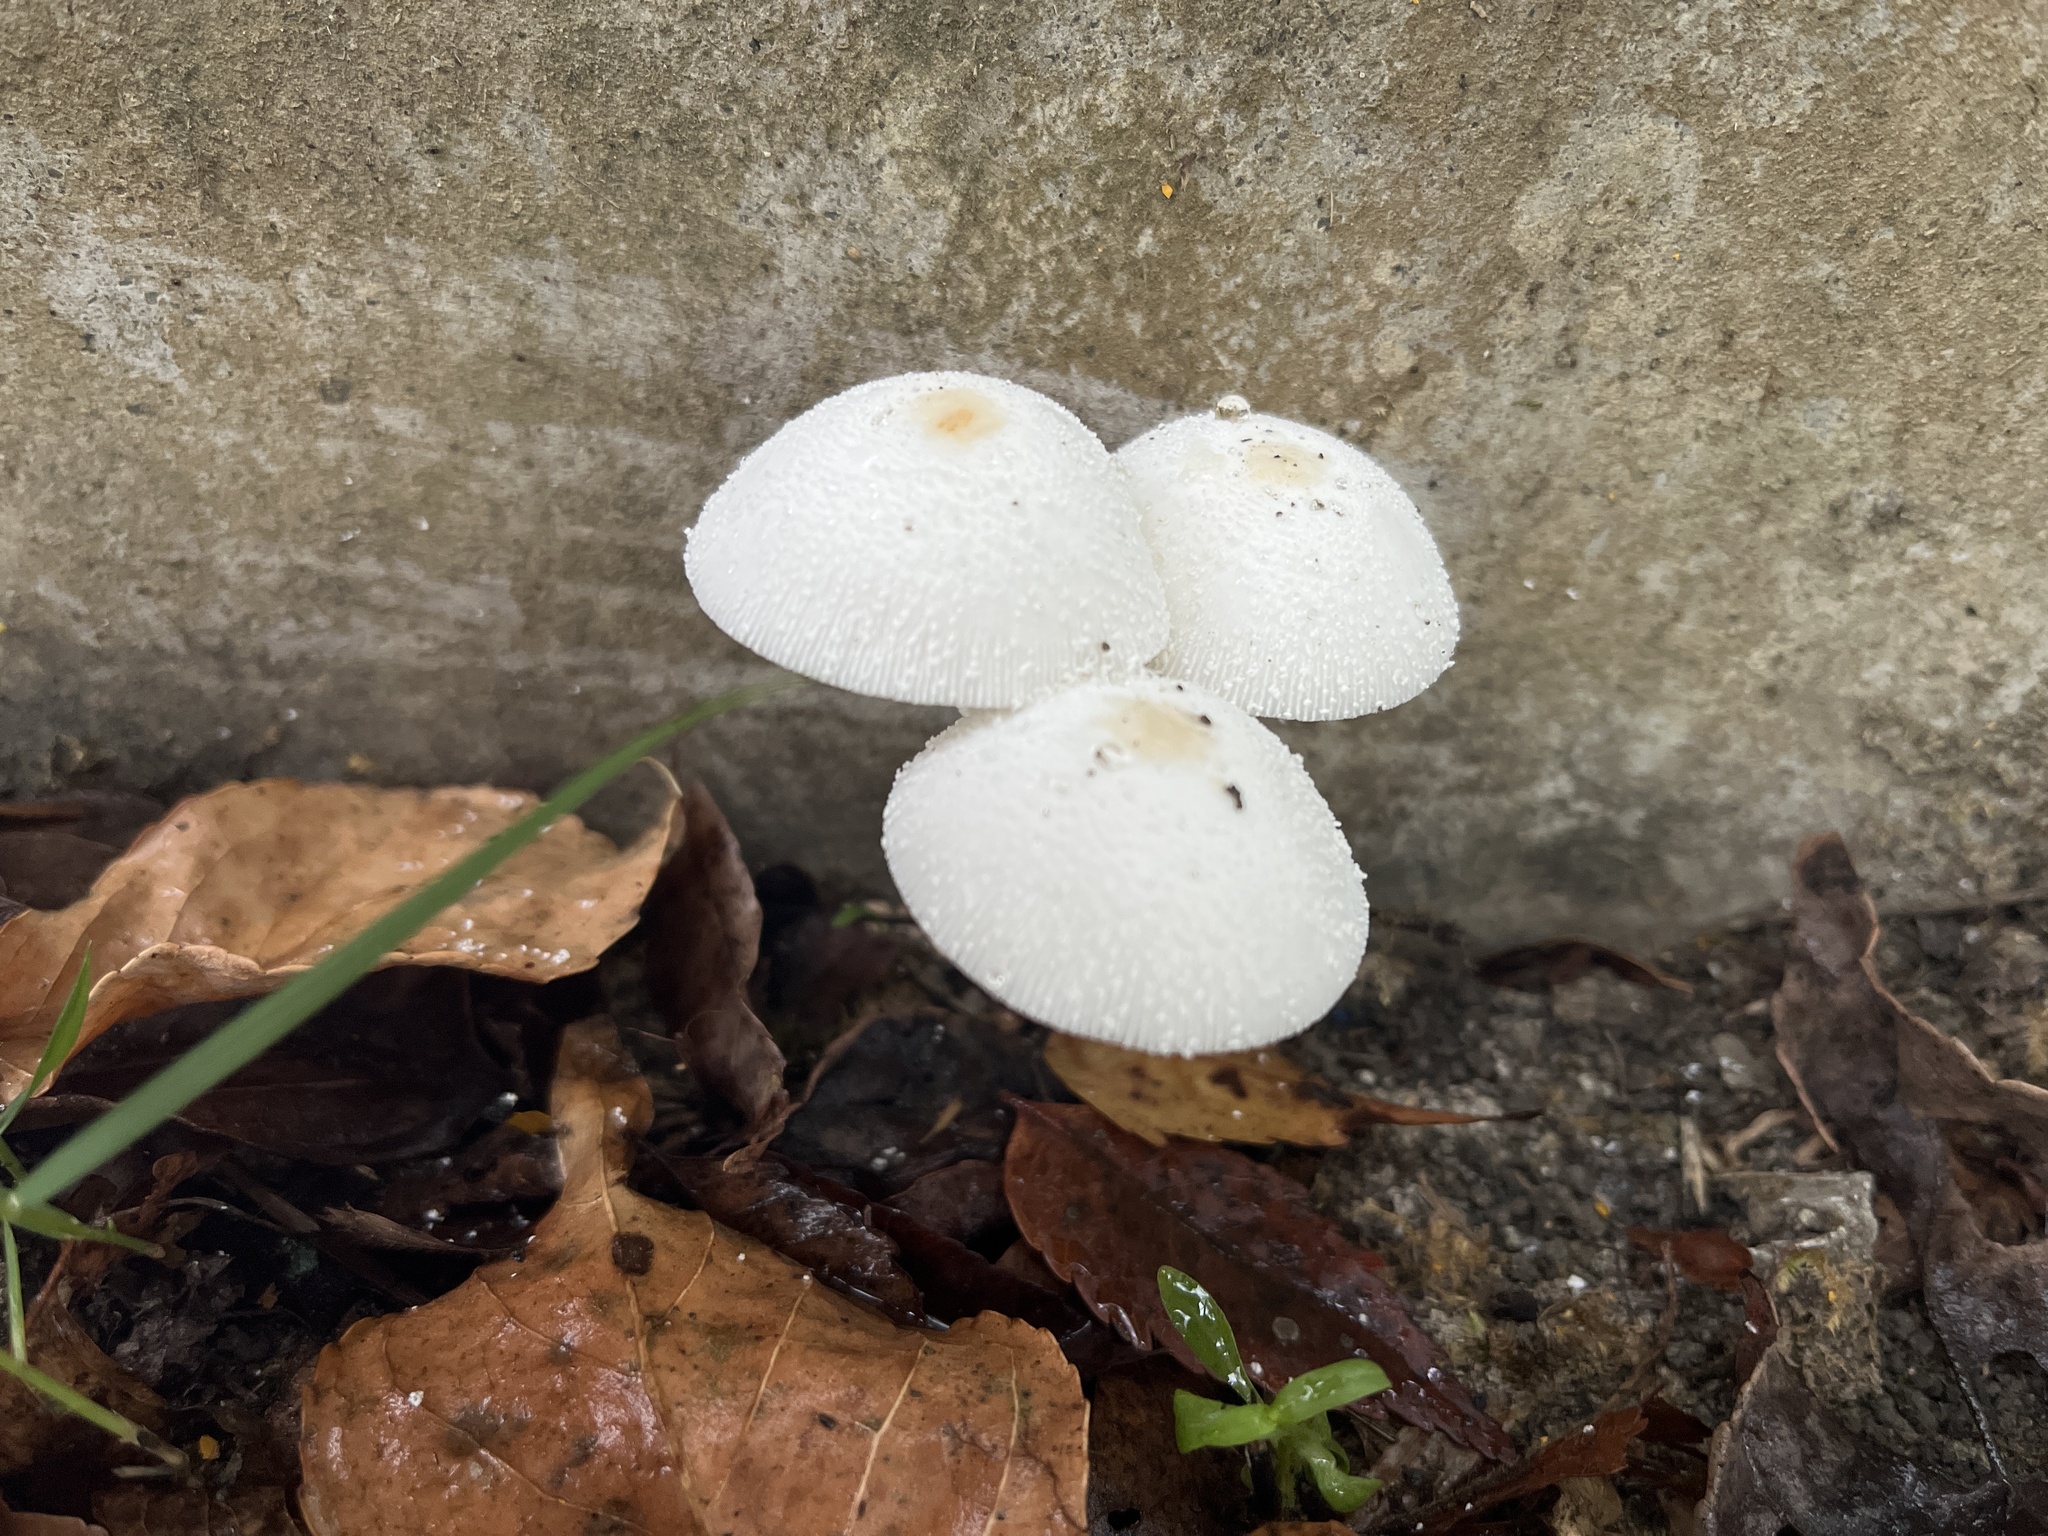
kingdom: Fungi
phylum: Basidiomycota
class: Agaricomycetes
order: Agaricales
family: Agaricaceae
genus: Leucocoprinus
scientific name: Leucocoprinus cepistipes
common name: Onion-stalk parasol
